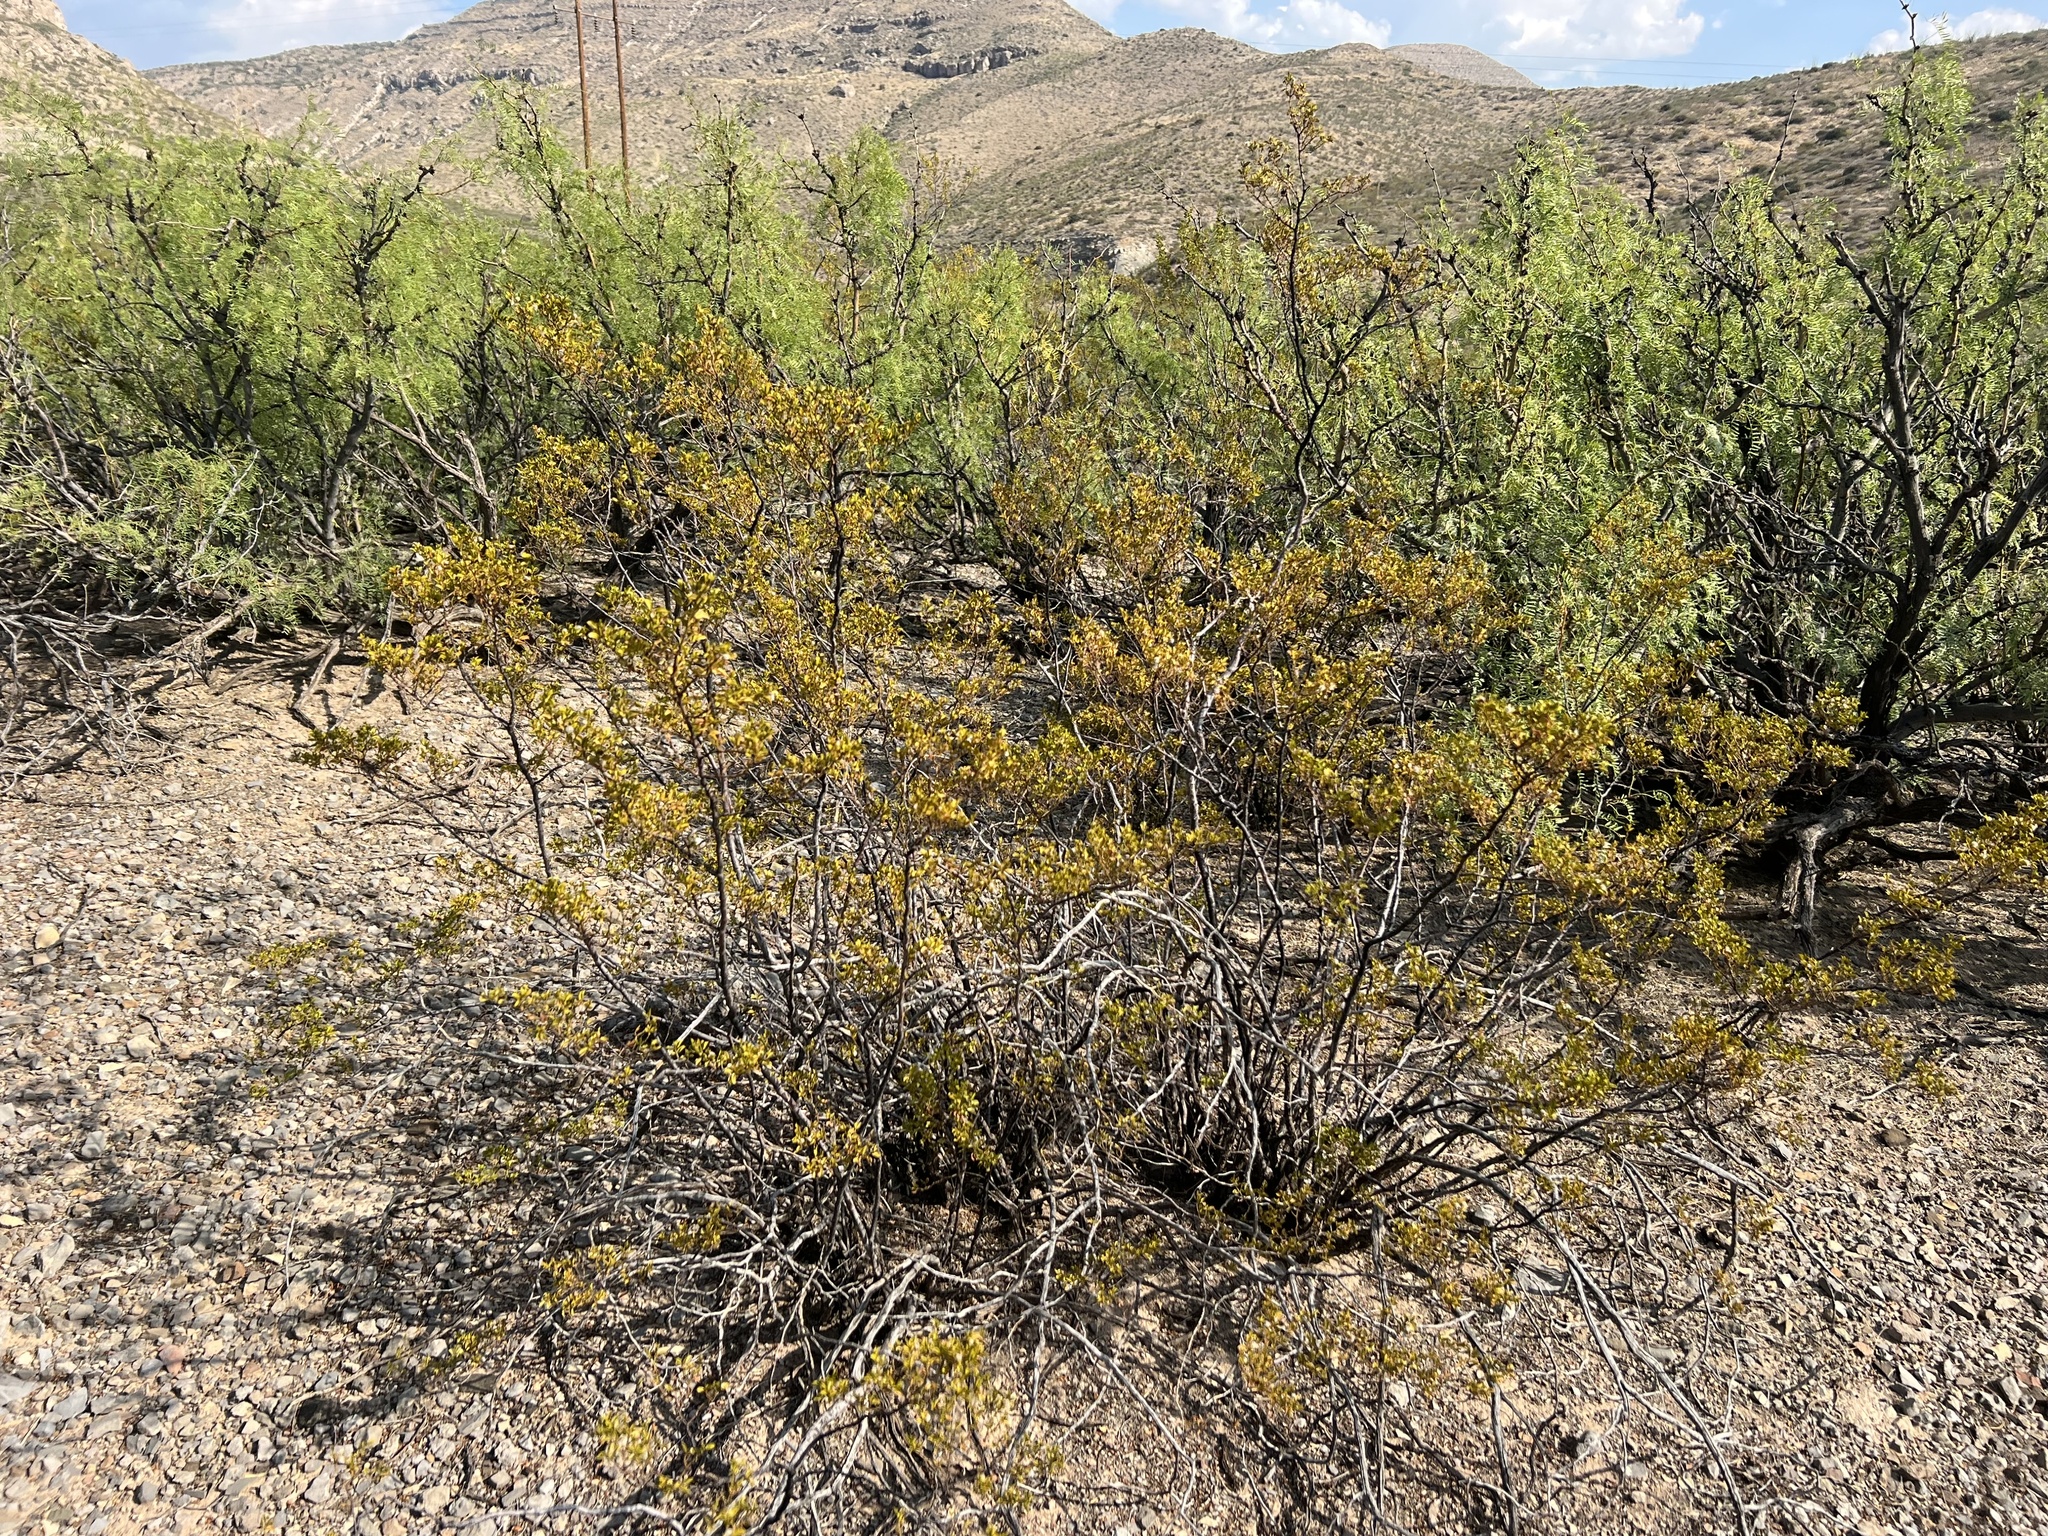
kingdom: Plantae
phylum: Tracheophyta
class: Magnoliopsida
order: Zygophyllales
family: Zygophyllaceae
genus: Larrea
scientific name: Larrea tridentata
